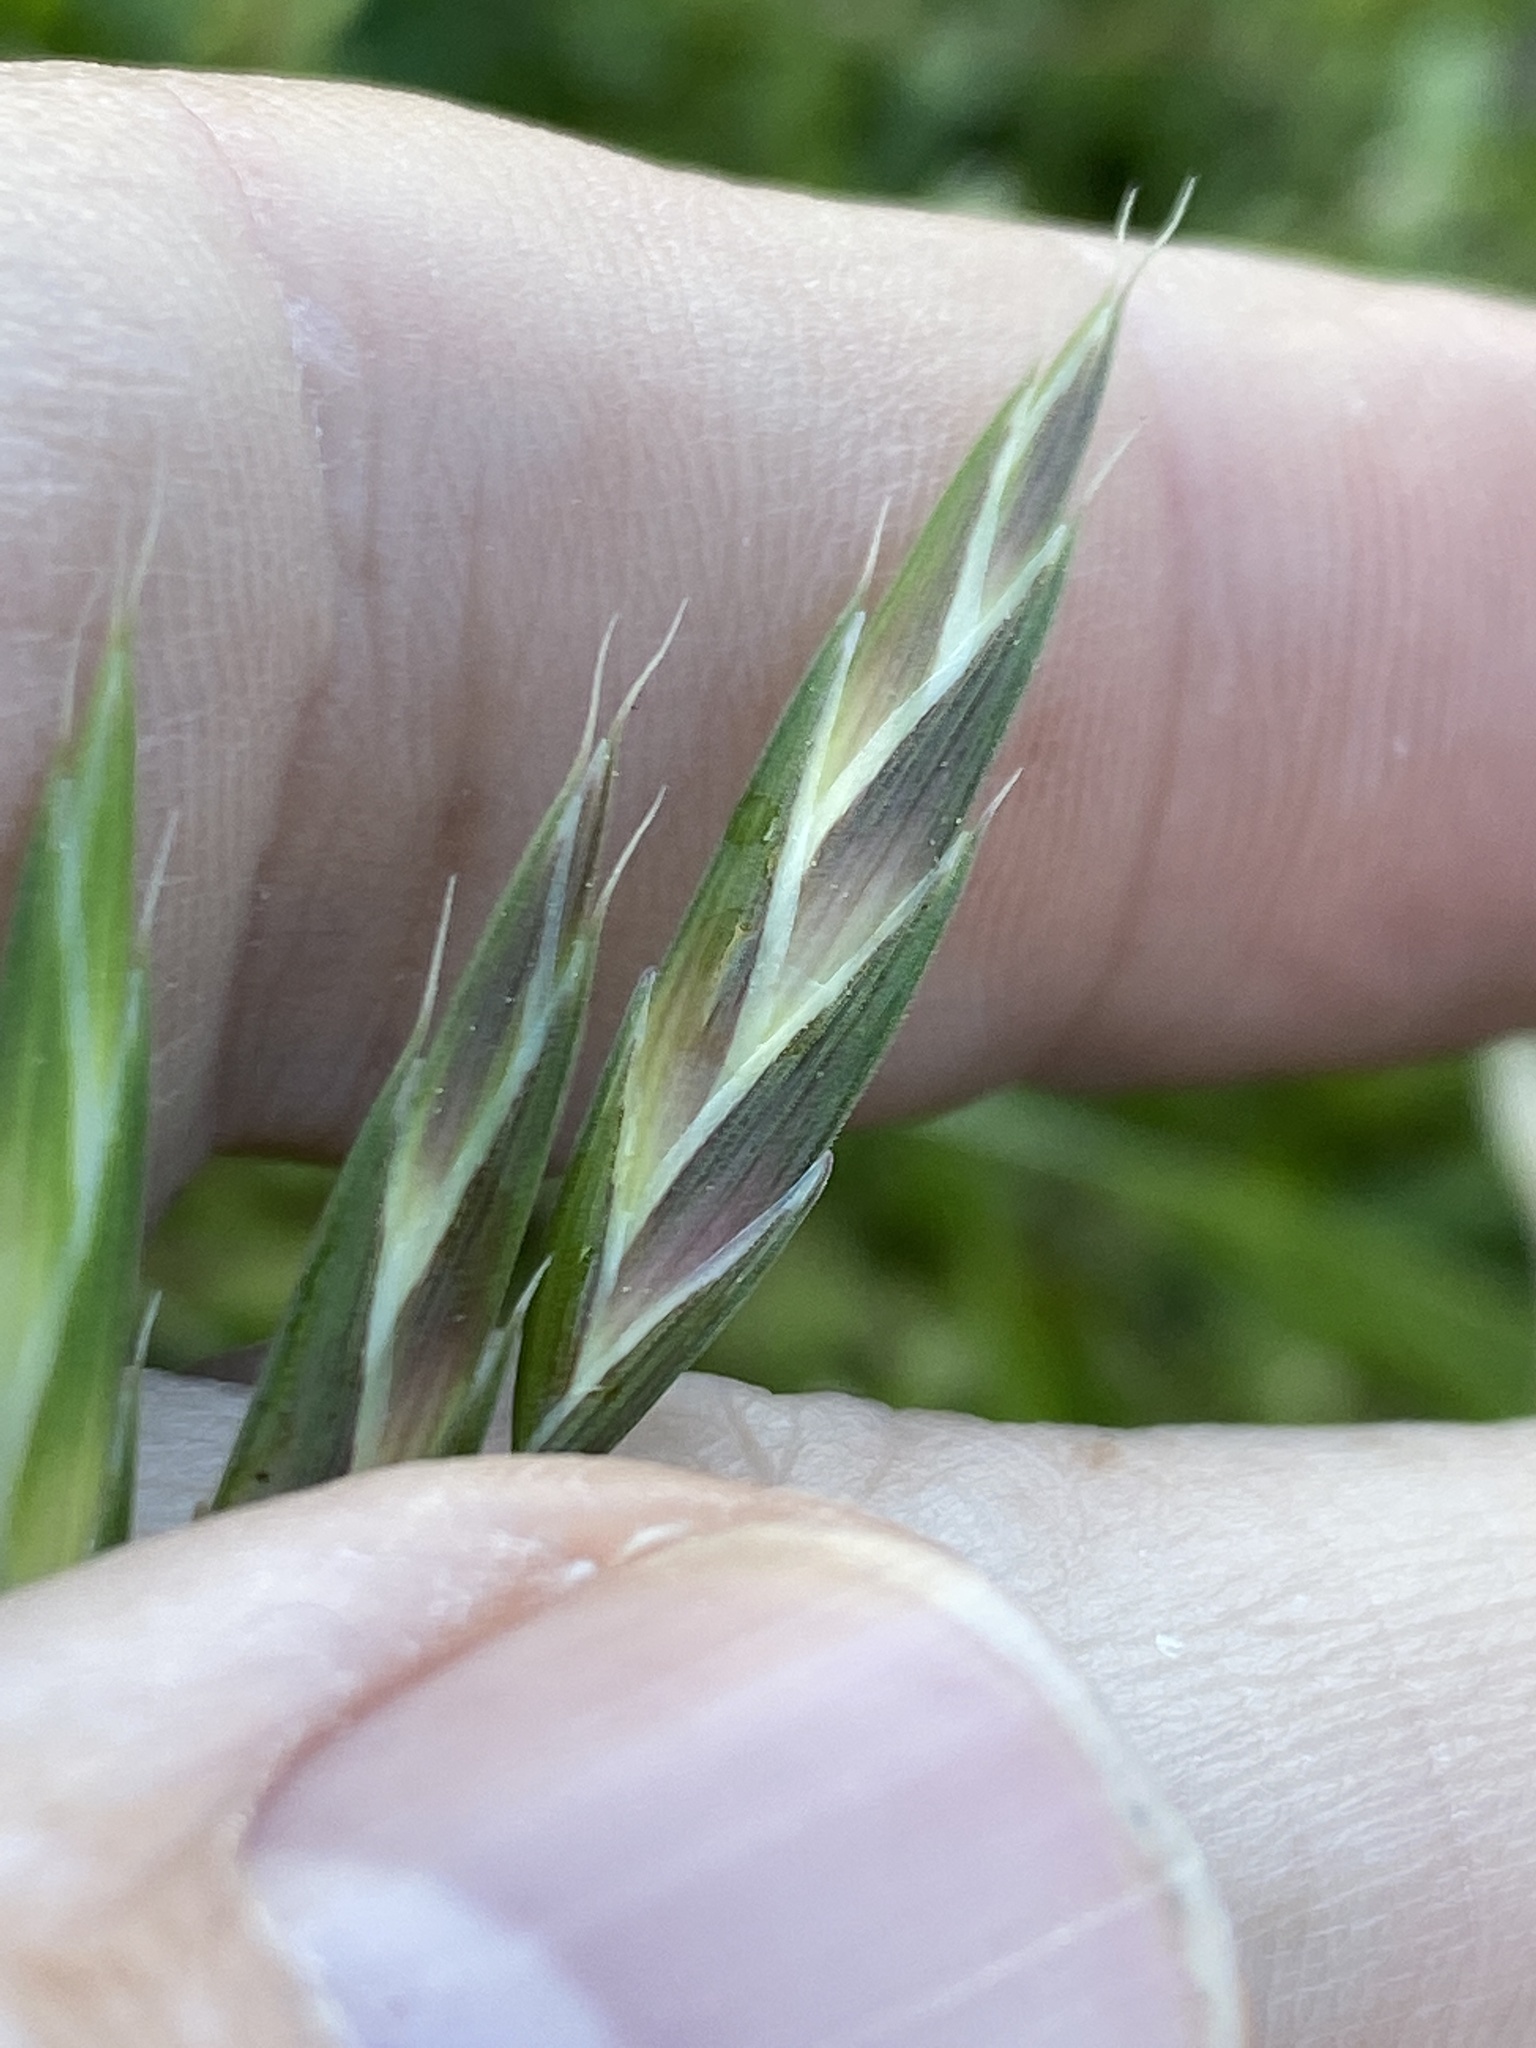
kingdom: Plantae
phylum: Tracheophyta
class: Liliopsida
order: Poales
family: Poaceae
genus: Bromus
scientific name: Bromus catharticus
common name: Rescuegrass
